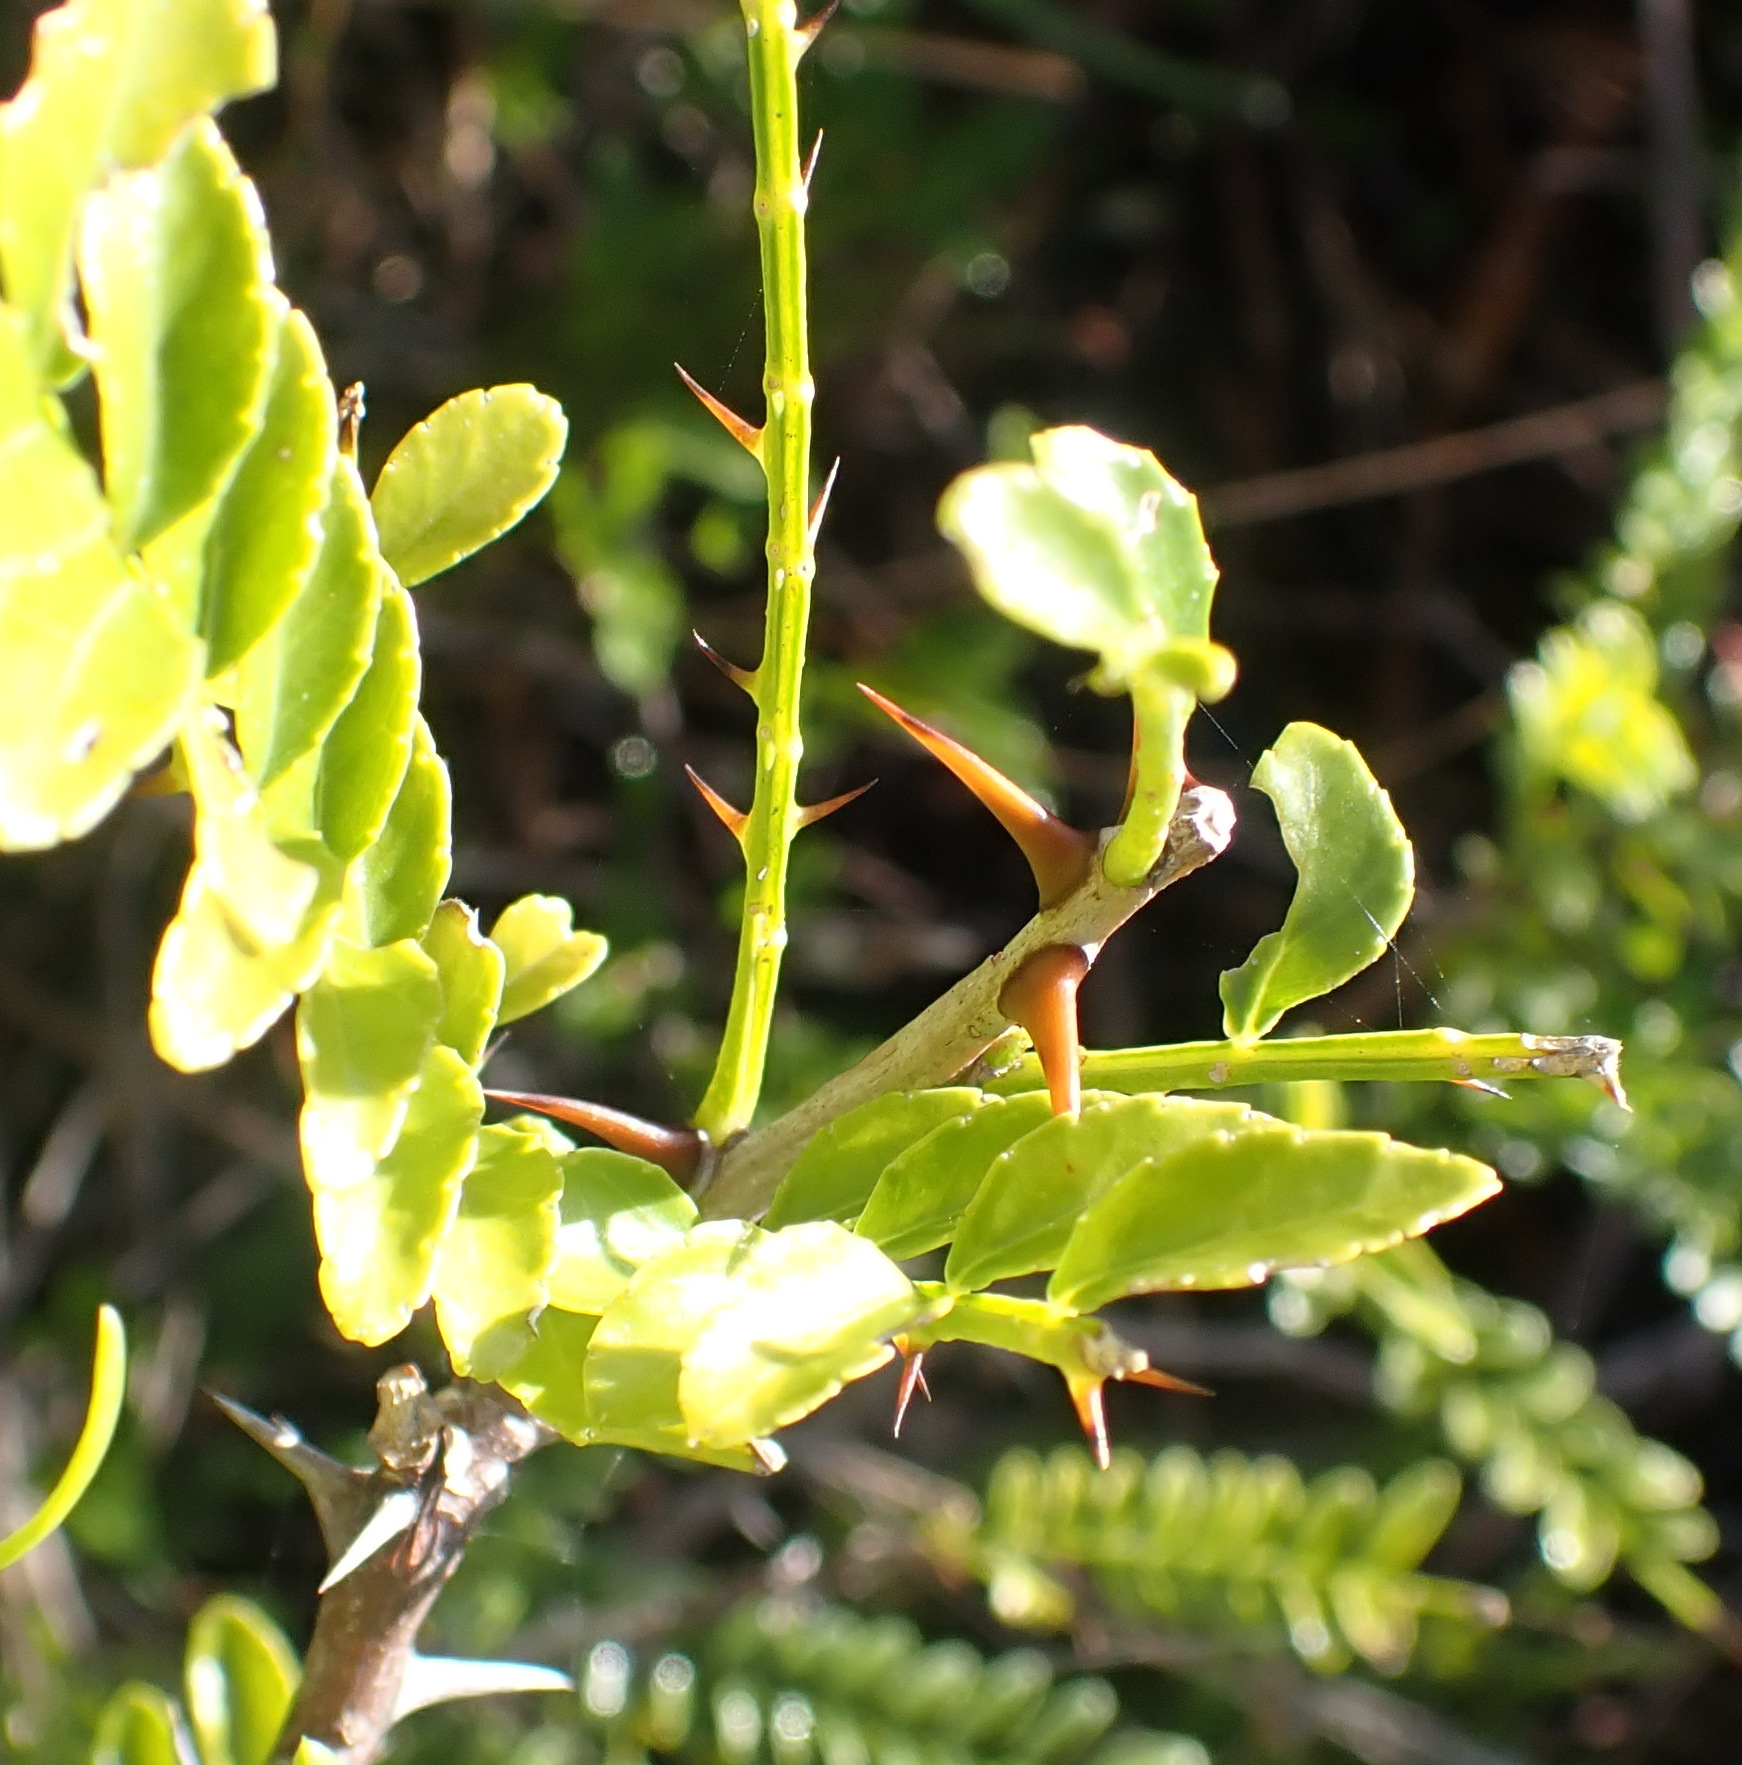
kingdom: Plantae
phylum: Tracheophyta
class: Magnoliopsida
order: Sapindales
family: Rutaceae
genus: Zanthoxylum
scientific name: Zanthoxylum capense
